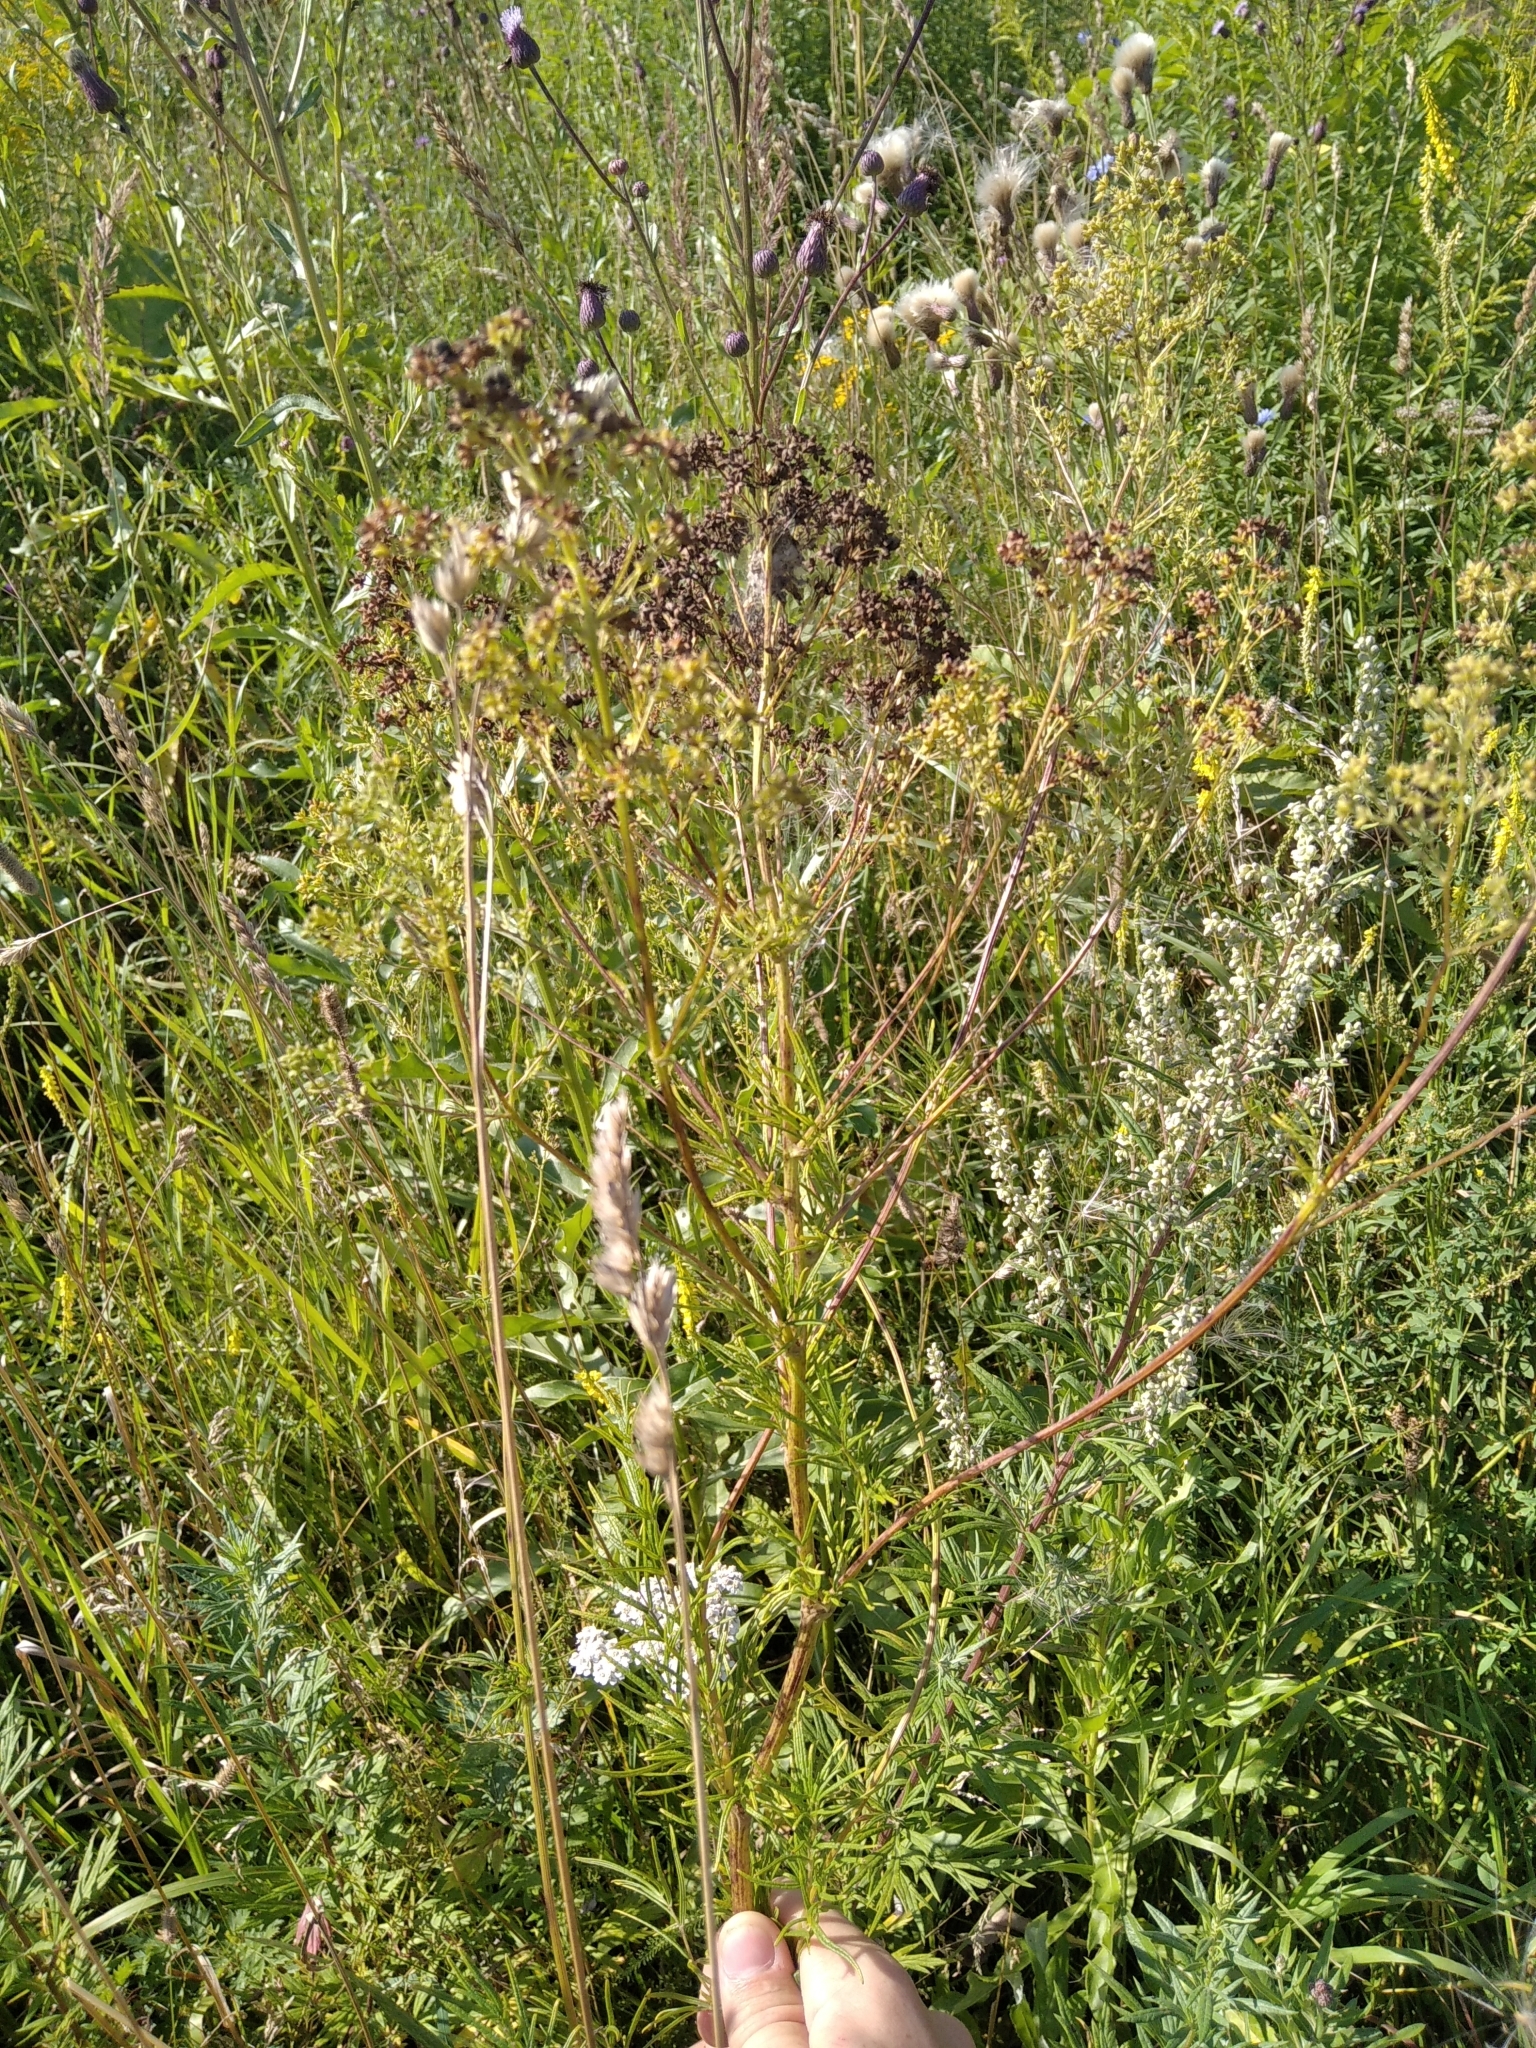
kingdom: Plantae
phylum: Tracheophyta
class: Magnoliopsida
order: Ranunculales
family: Ranunculaceae
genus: Thalictrum
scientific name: Thalictrum lucidum
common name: Shining meadow-rue
